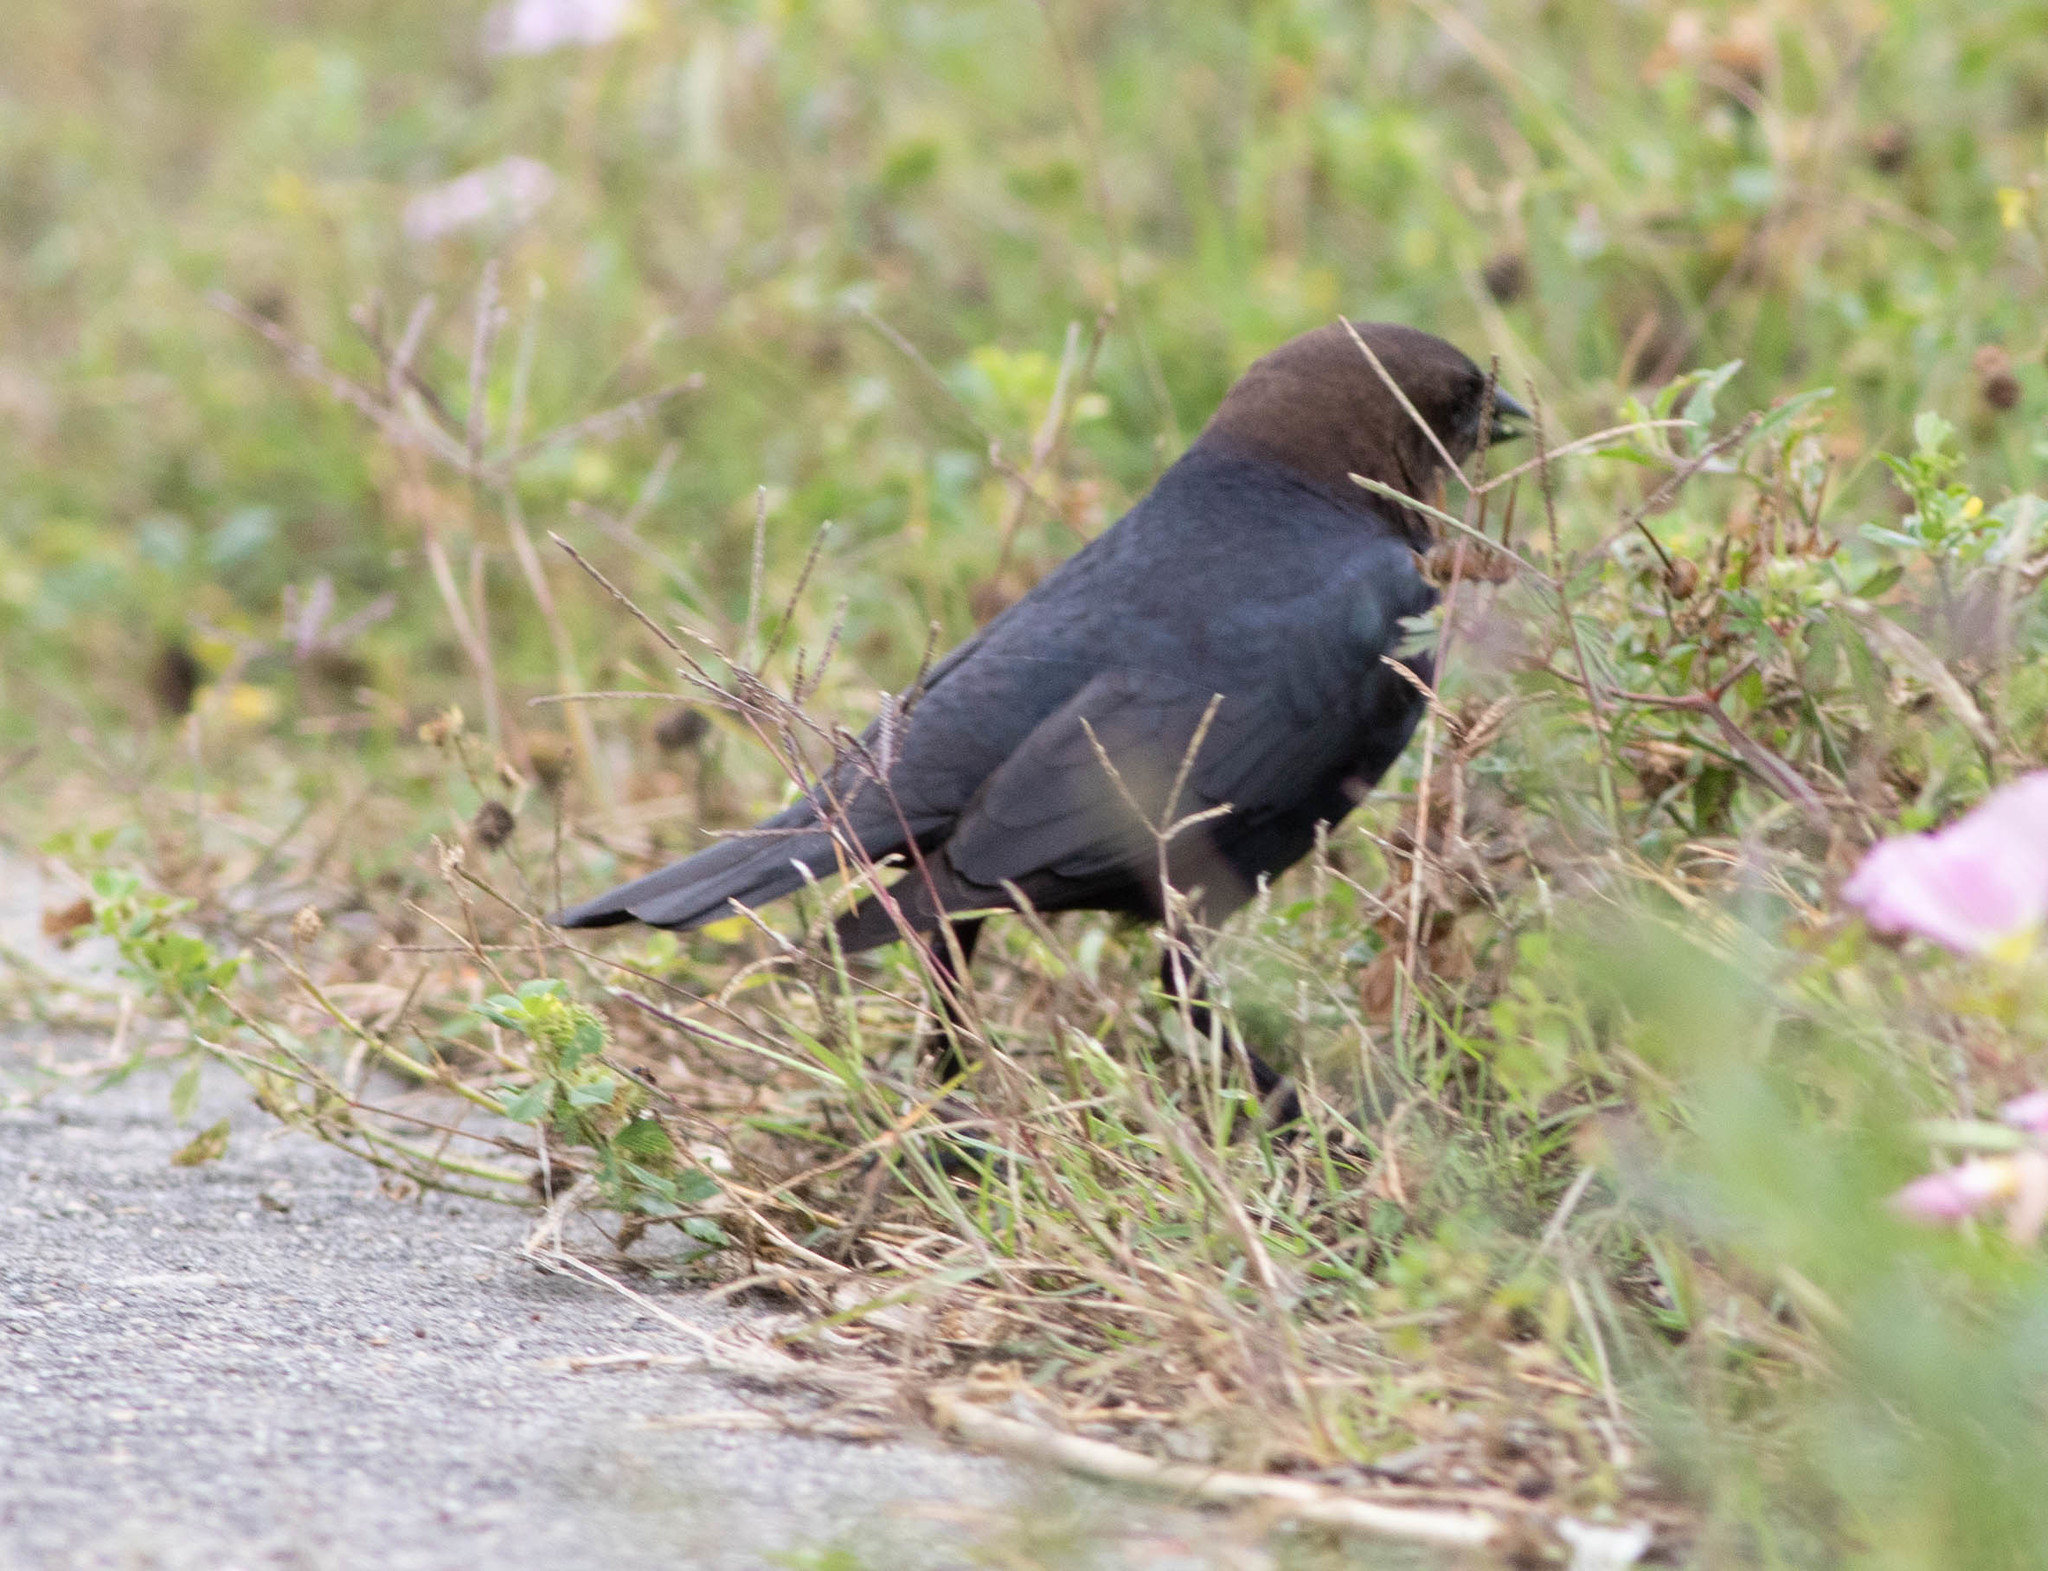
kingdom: Animalia
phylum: Chordata
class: Aves
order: Passeriformes
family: Icteridae
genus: Molothrus
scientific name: Molothrus ater
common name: Brown-headed cowbird
